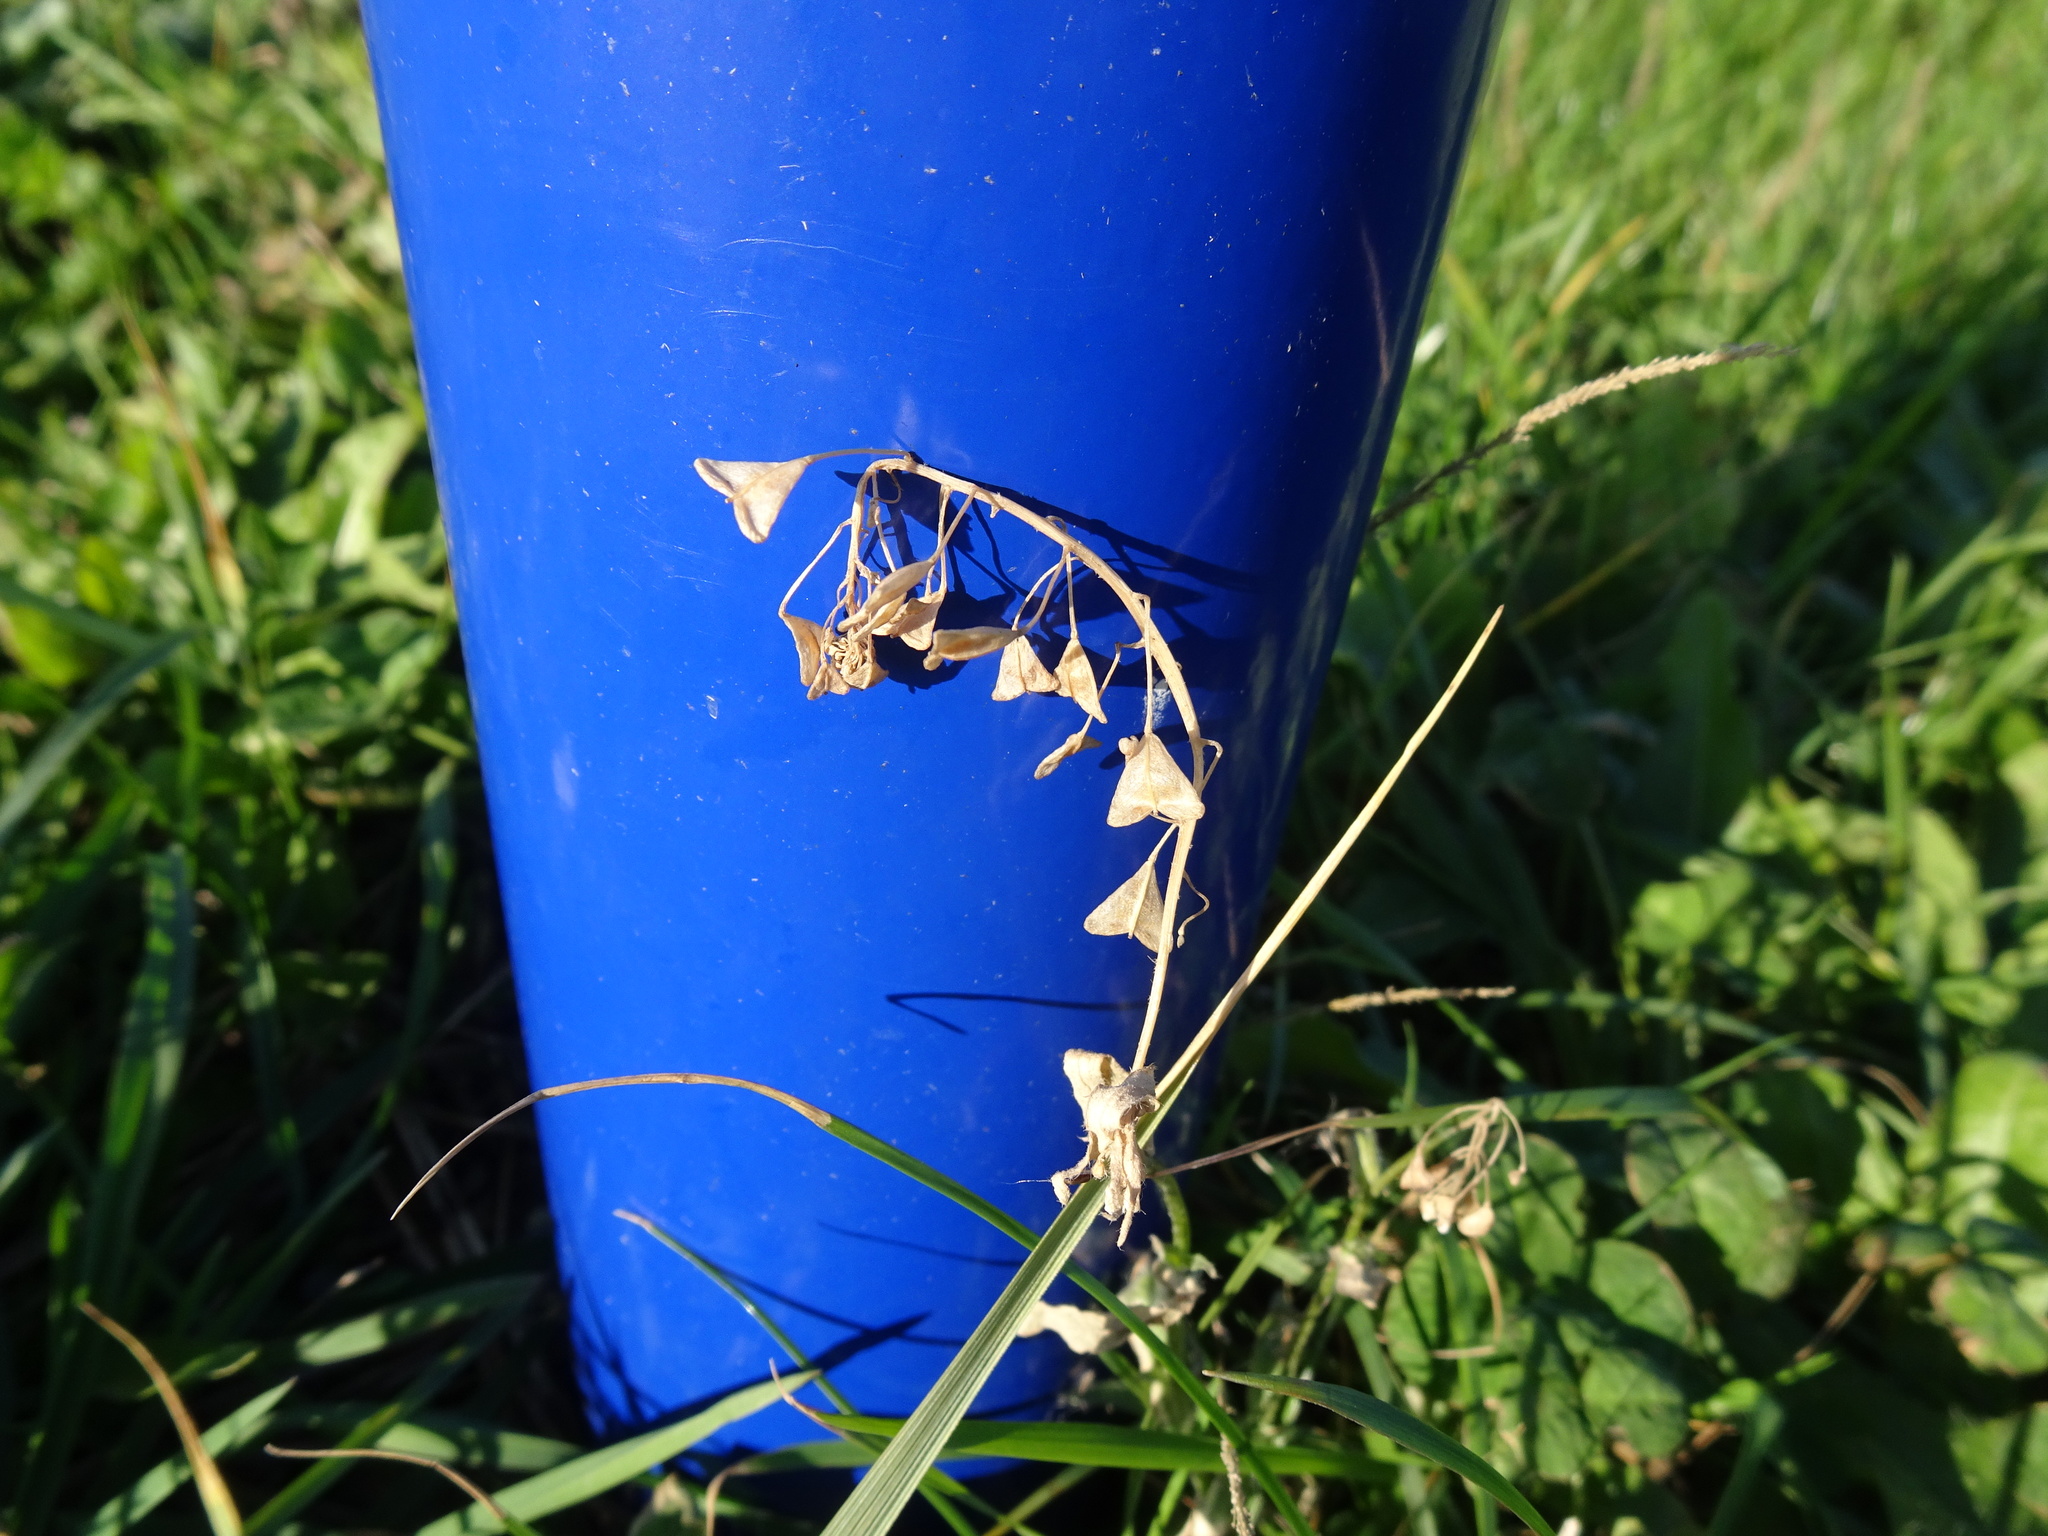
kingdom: Plantae
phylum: Tracheophyta
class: Magnoliopsida
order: Brassicales
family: Brassicaceae
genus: Capsella
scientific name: Capsella bursa-pastoris
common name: Shepherd's purse
